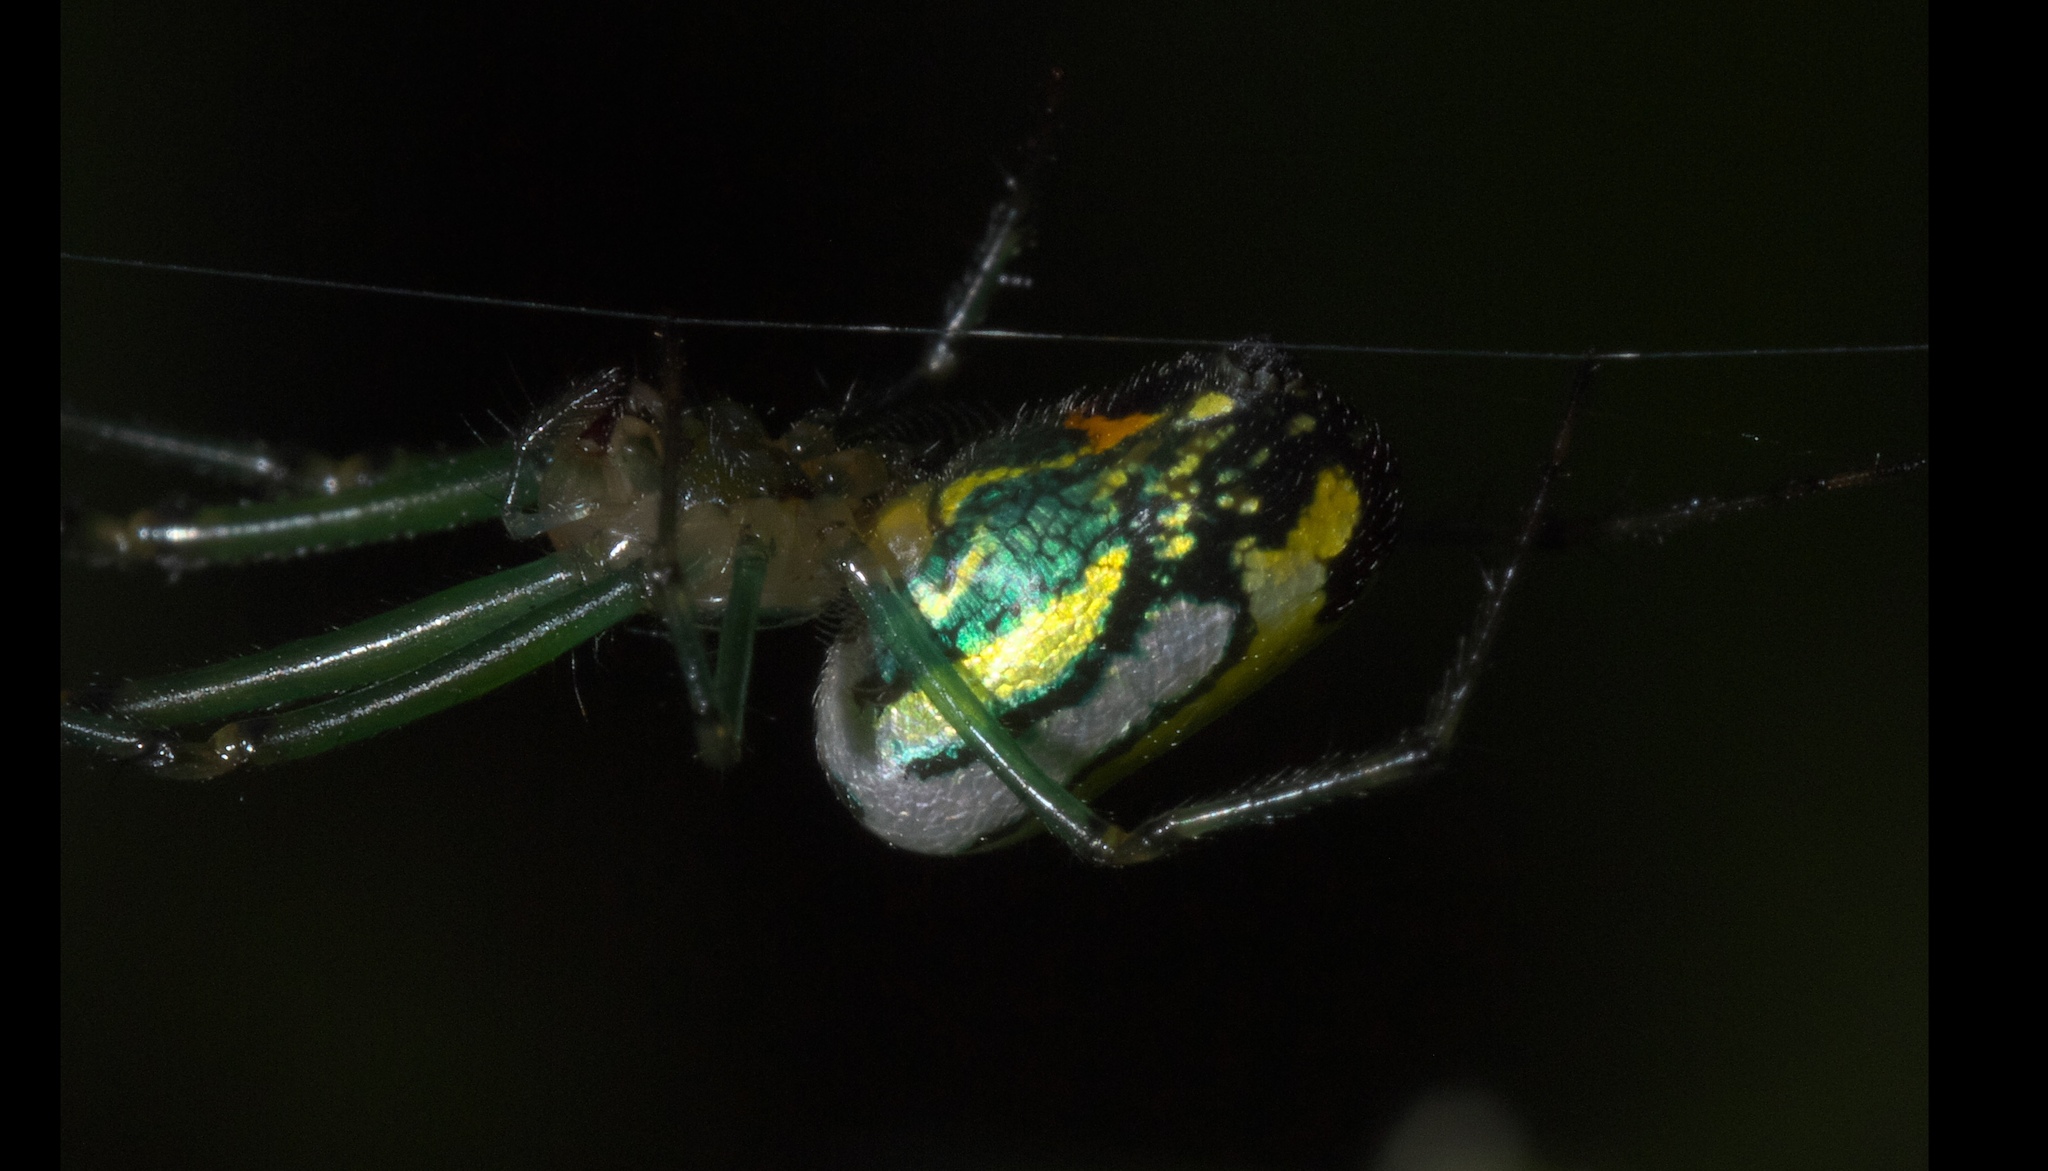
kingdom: Animalia
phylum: Arthropoda
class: Arachnida
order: Araneae
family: Tetragnathidae
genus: Leucauge
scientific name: Leucauge venusta
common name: Longjawed orb weavers
